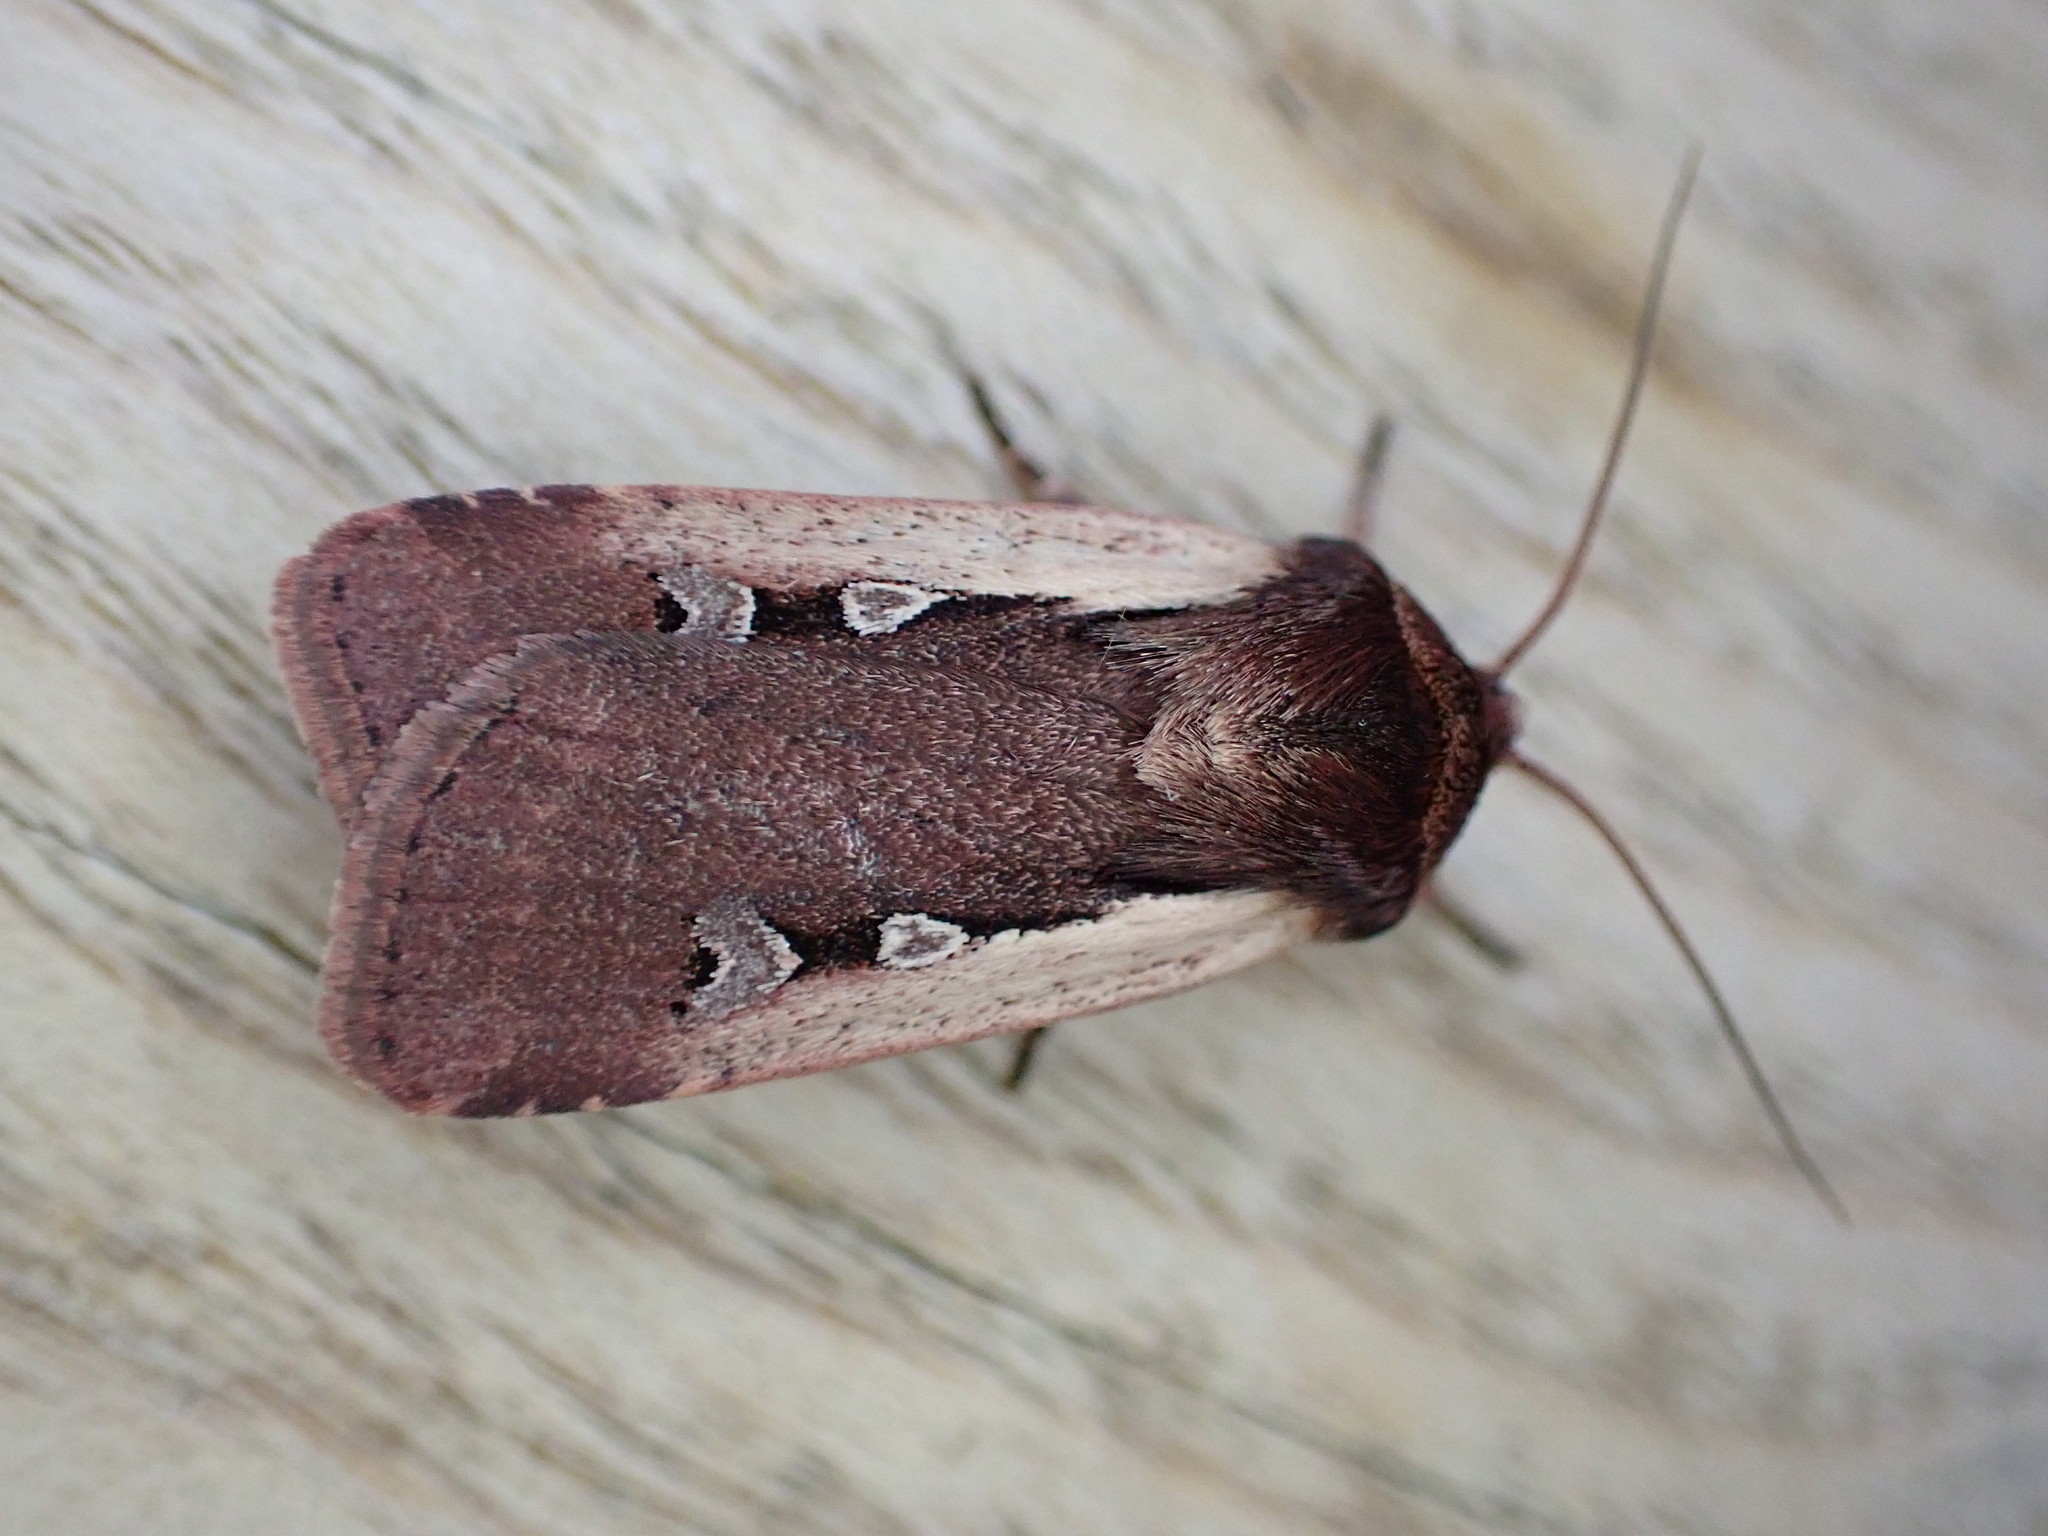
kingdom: Animalia
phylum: Arthropoda
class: Insecta
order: Lepidoptera
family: Noctuidae
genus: Ochropleura
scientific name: Ochropleura plecta
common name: Flame shoulder
